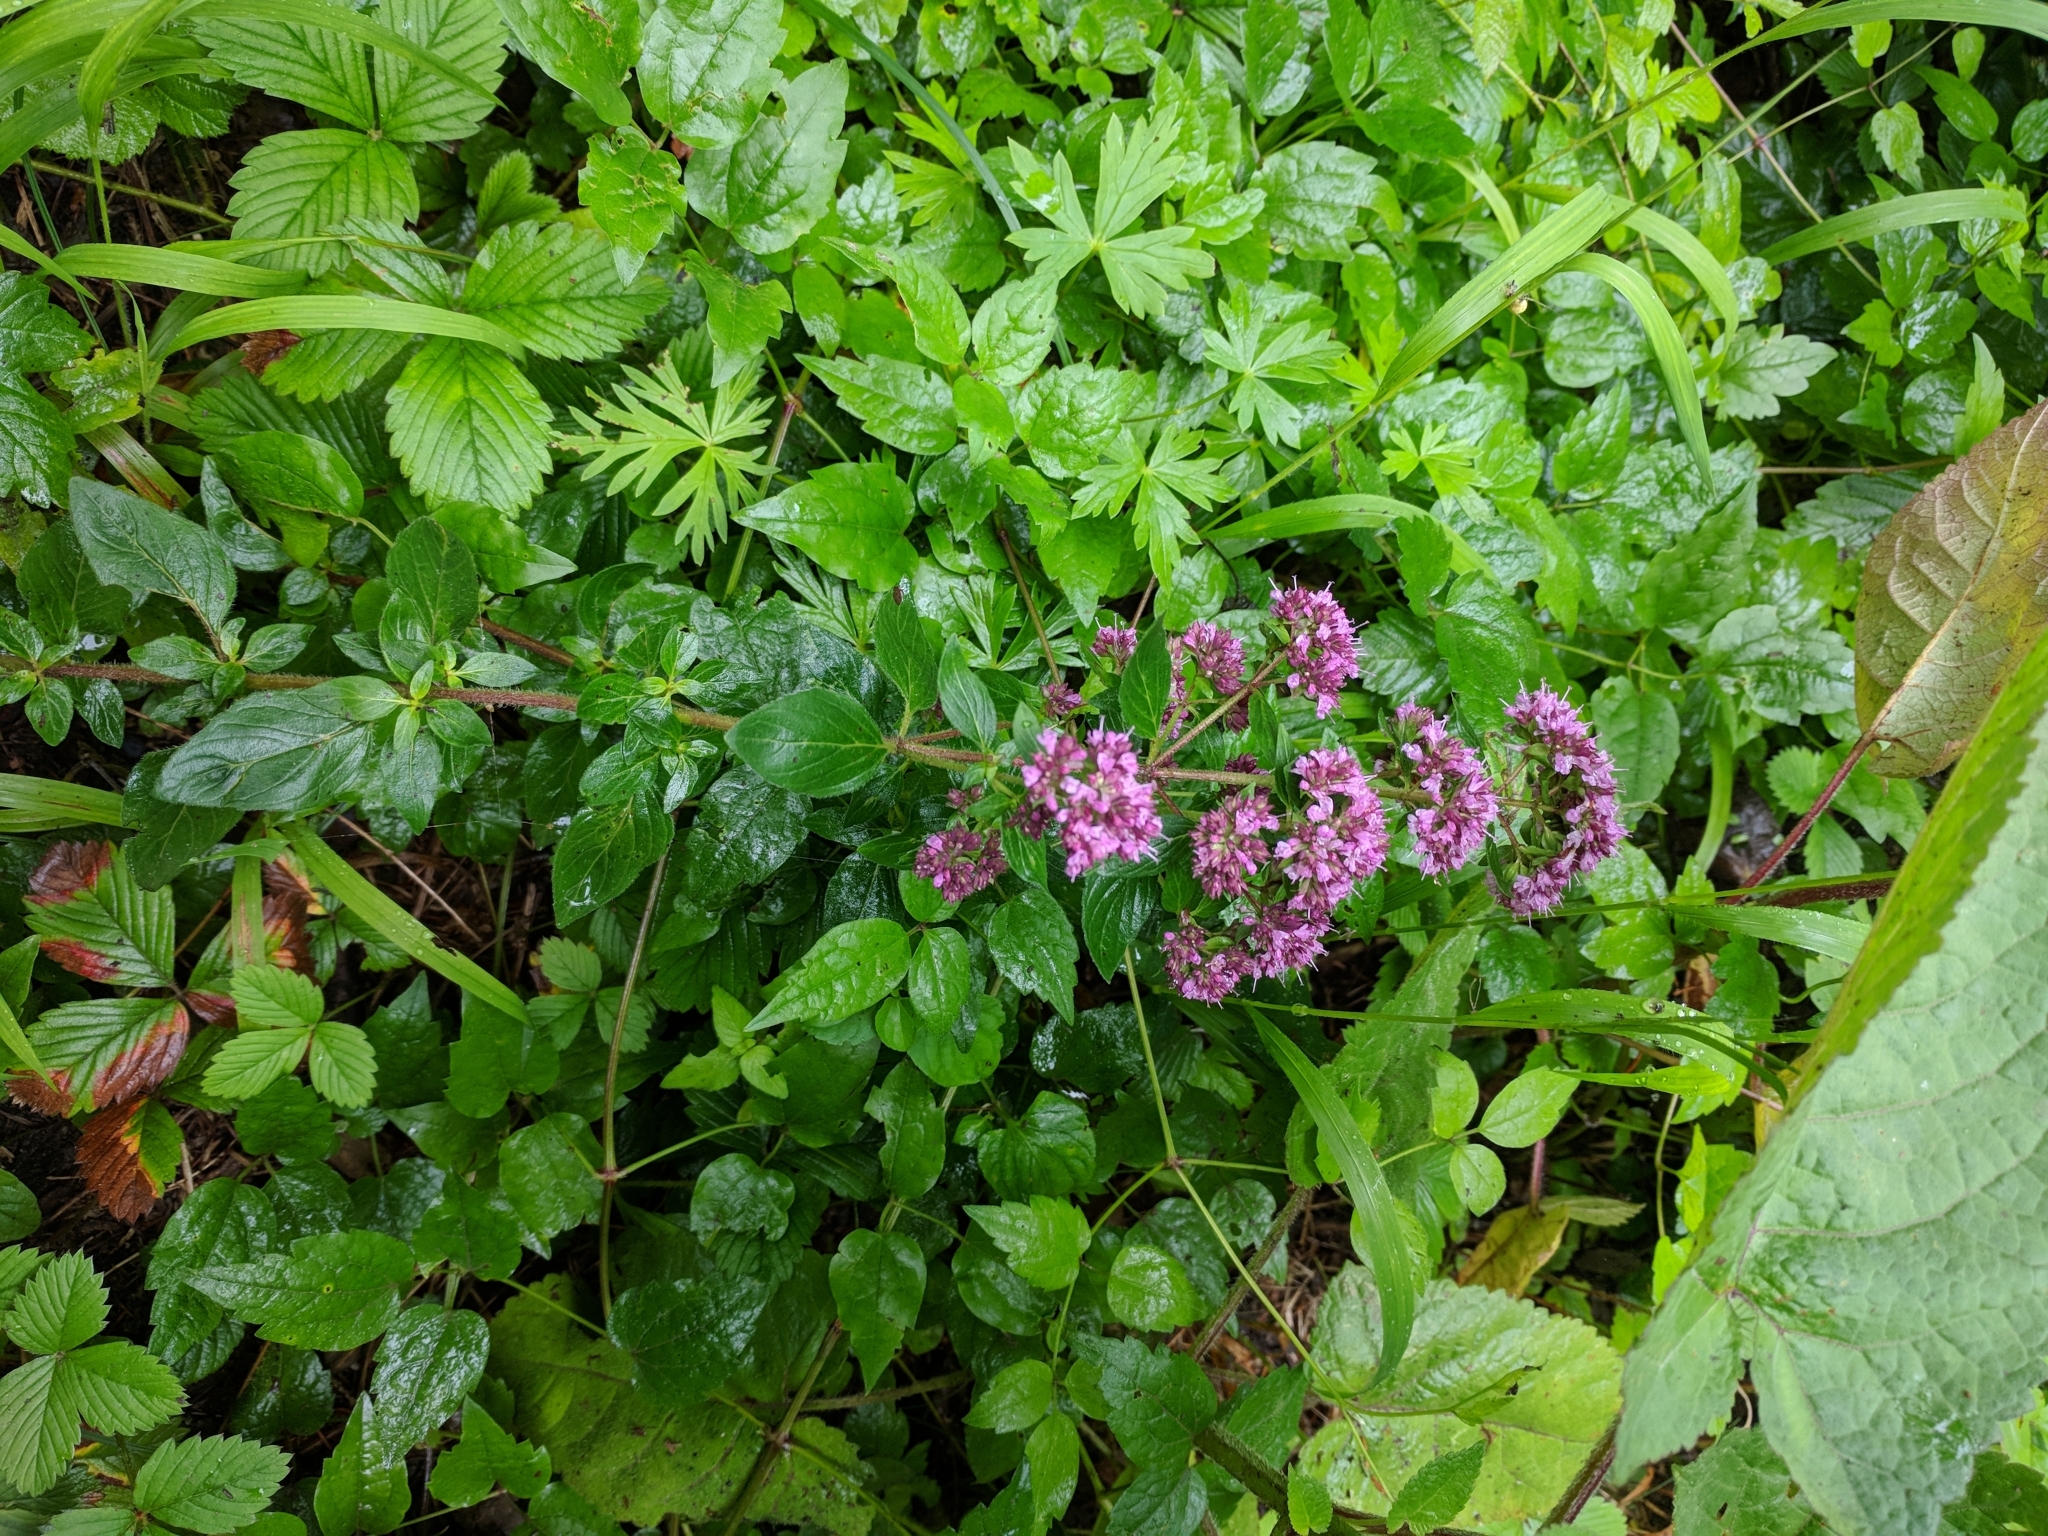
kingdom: Plantae
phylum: Tracheophyta
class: Magnoliopsida
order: Lamiales
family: Lamiaceae
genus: Origanum
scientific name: Origanum vulgare
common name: Wild marjoram
